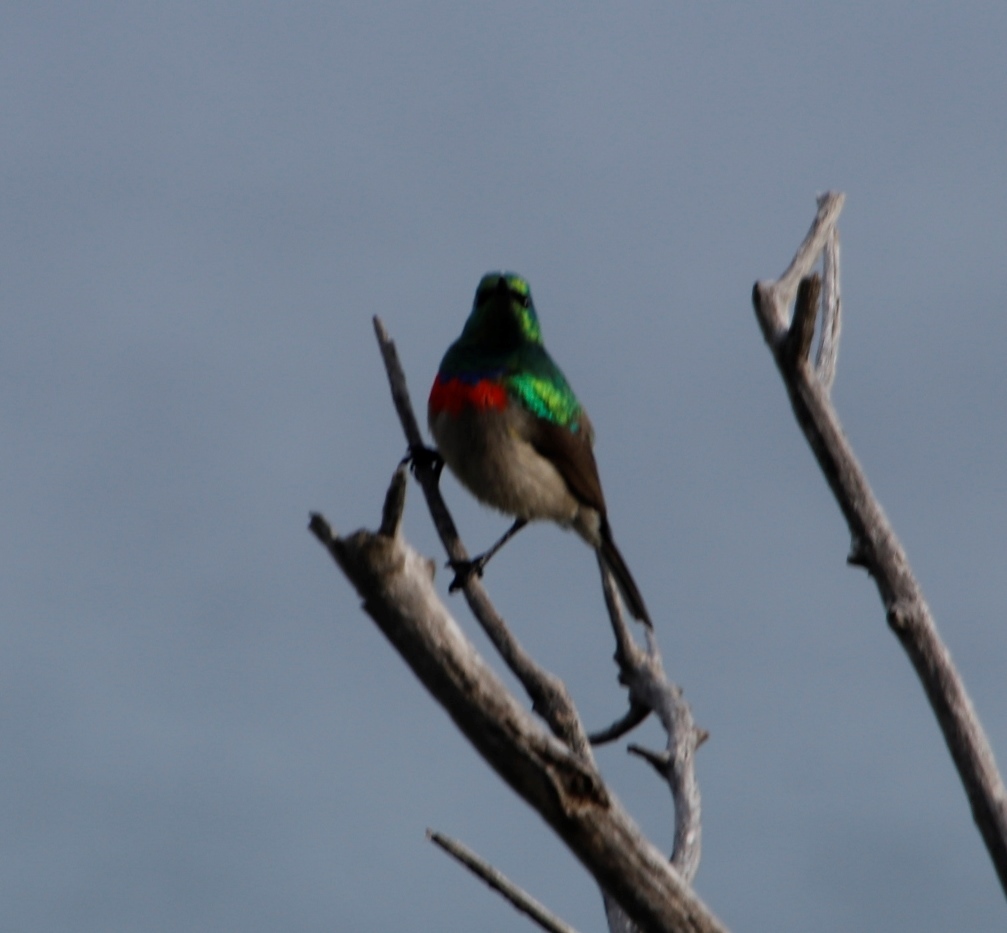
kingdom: Animalia
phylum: Chordata
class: Aves
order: Passeriformes
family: Nectariniidae
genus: Cinnyris
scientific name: Cinnyris chalybeus
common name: Southern double-collared sunbird
